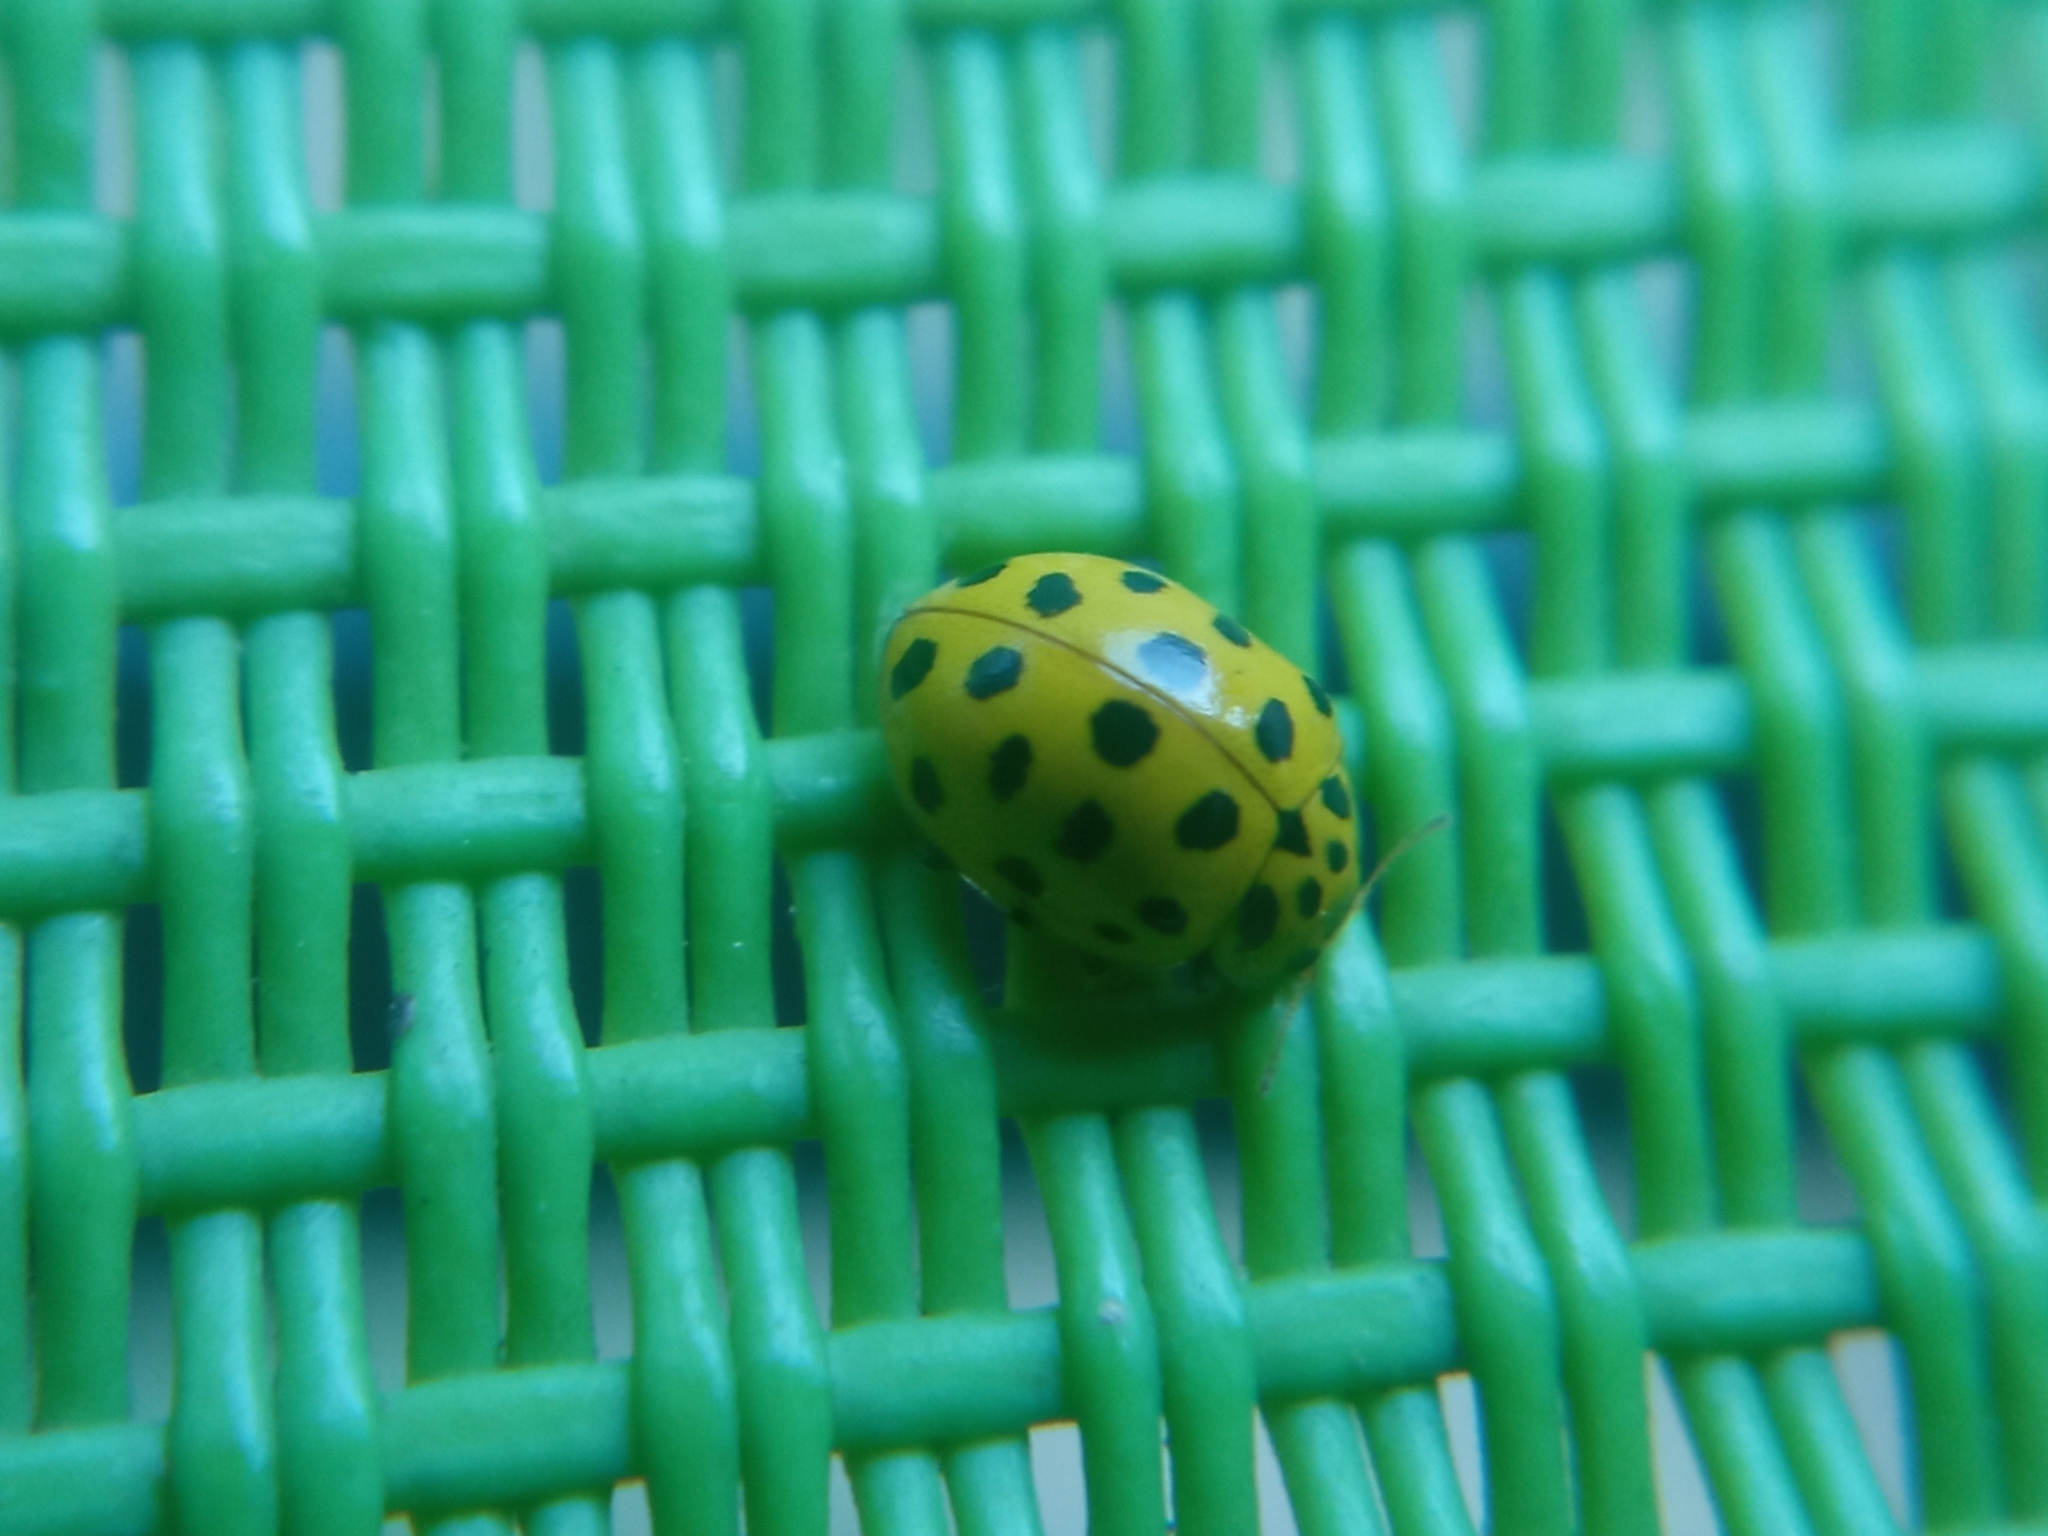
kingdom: Animalia
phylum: Arthropoda
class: Insecta
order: Coleoptera
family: Coccinellidae
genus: Psyllobora
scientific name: Psyllobora vigintiduopunctata
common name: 22-spot ladybird
